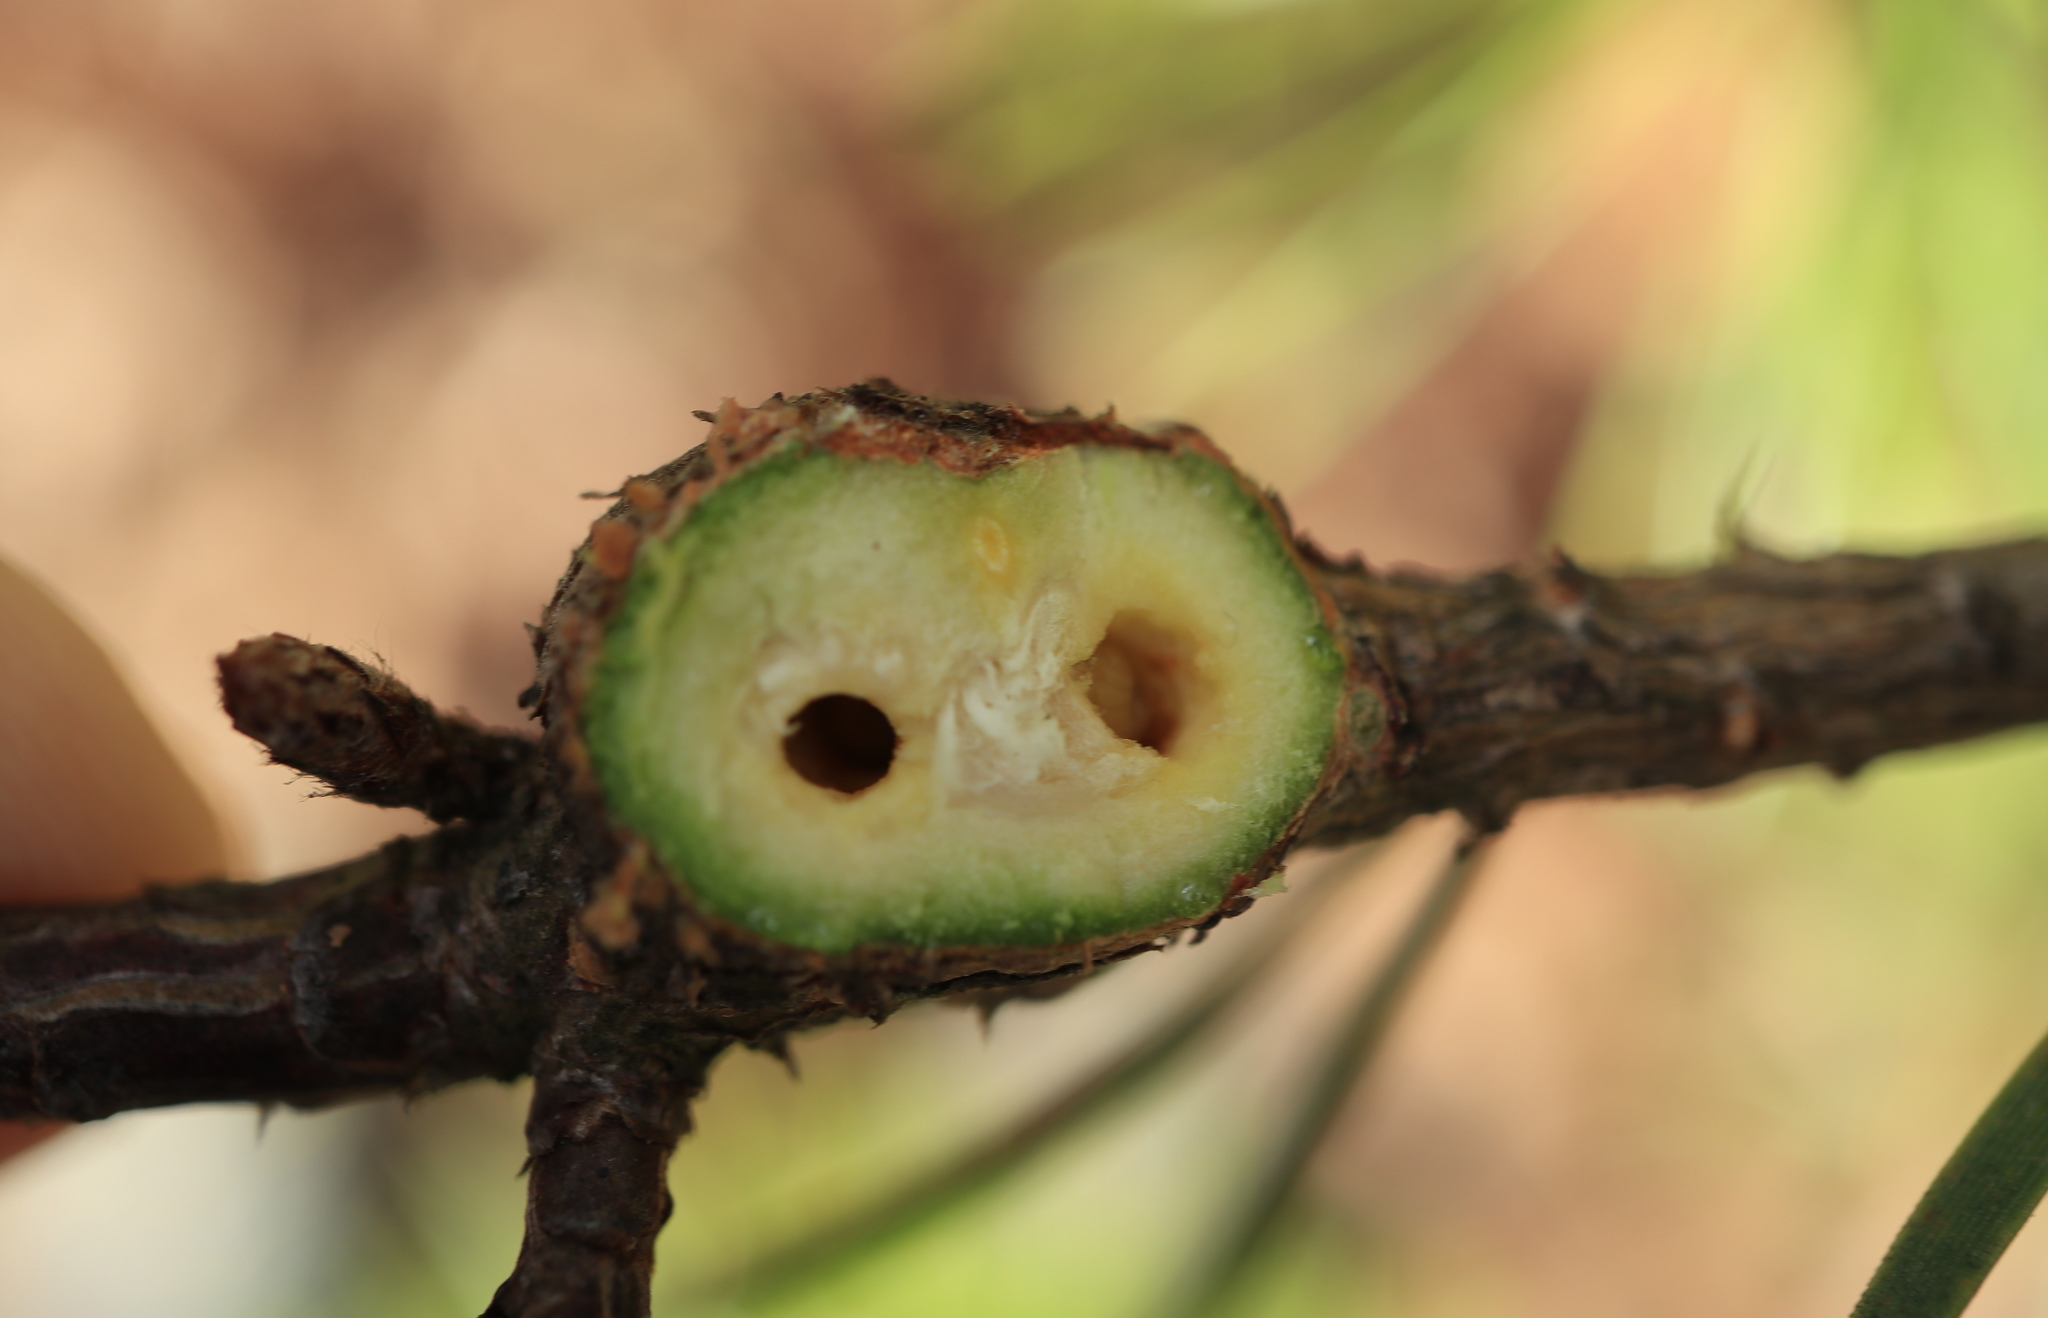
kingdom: Animalia
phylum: Arthropoda
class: Insecta
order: Coleoptera
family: Brentidae
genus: Podapion
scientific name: Podapion gallicola
